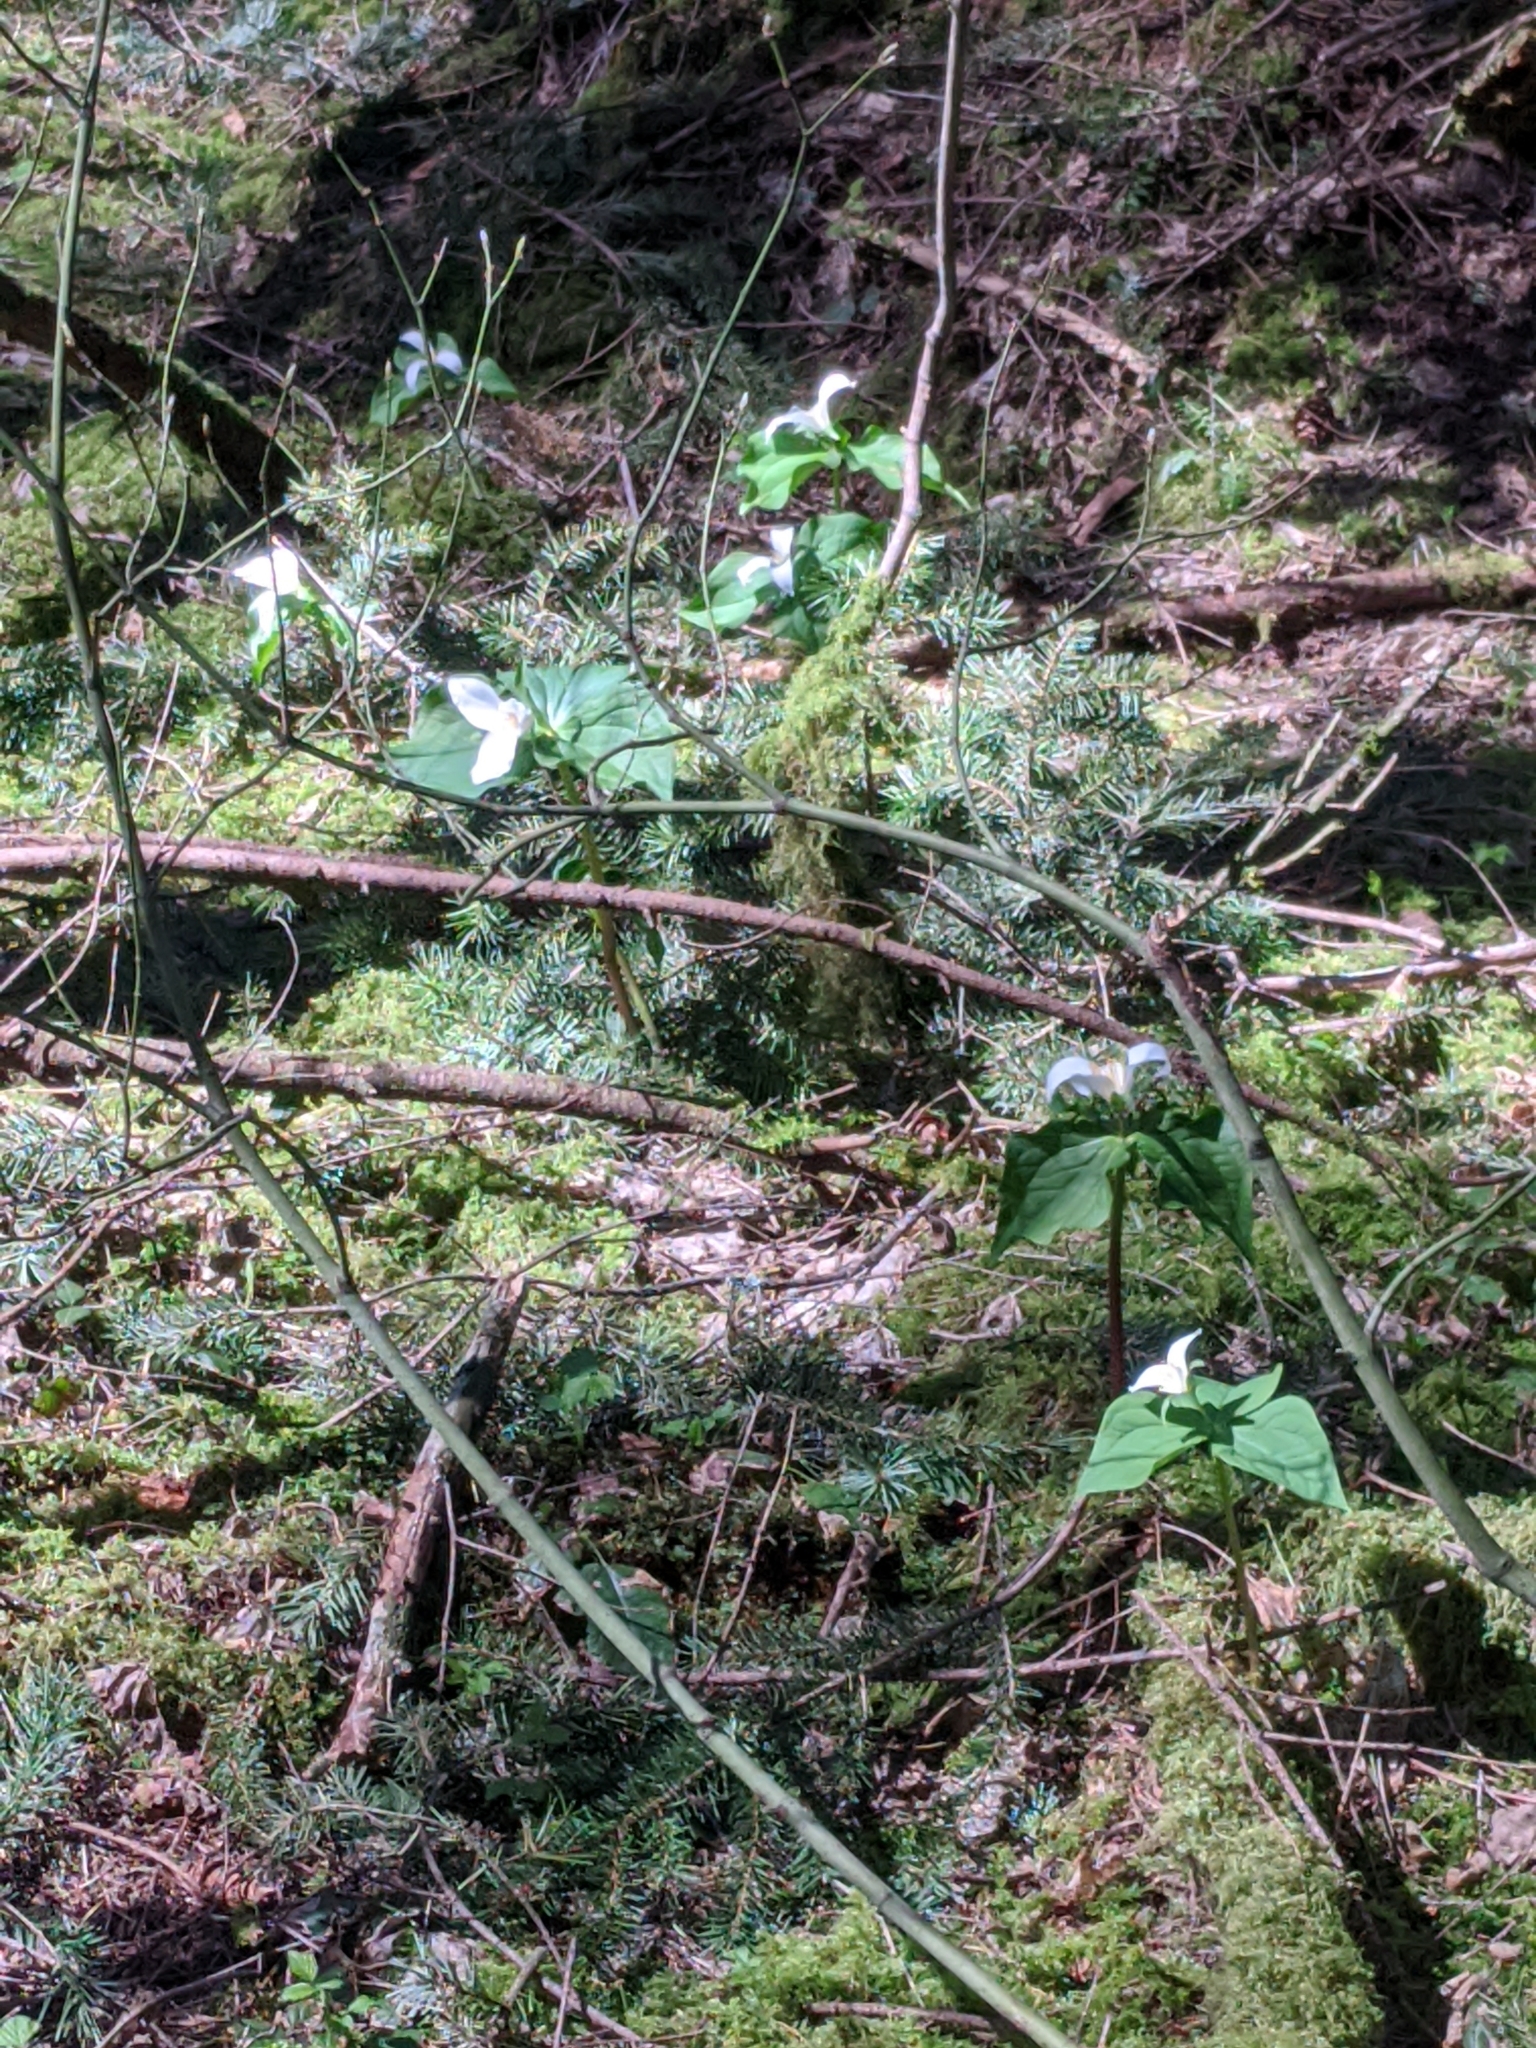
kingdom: Plantae
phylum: Tracheophyta
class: Liliopsida
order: Liliales
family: Melanthiaceae
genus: Trillium
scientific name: Trillium ovatum
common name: Pacific trillium
